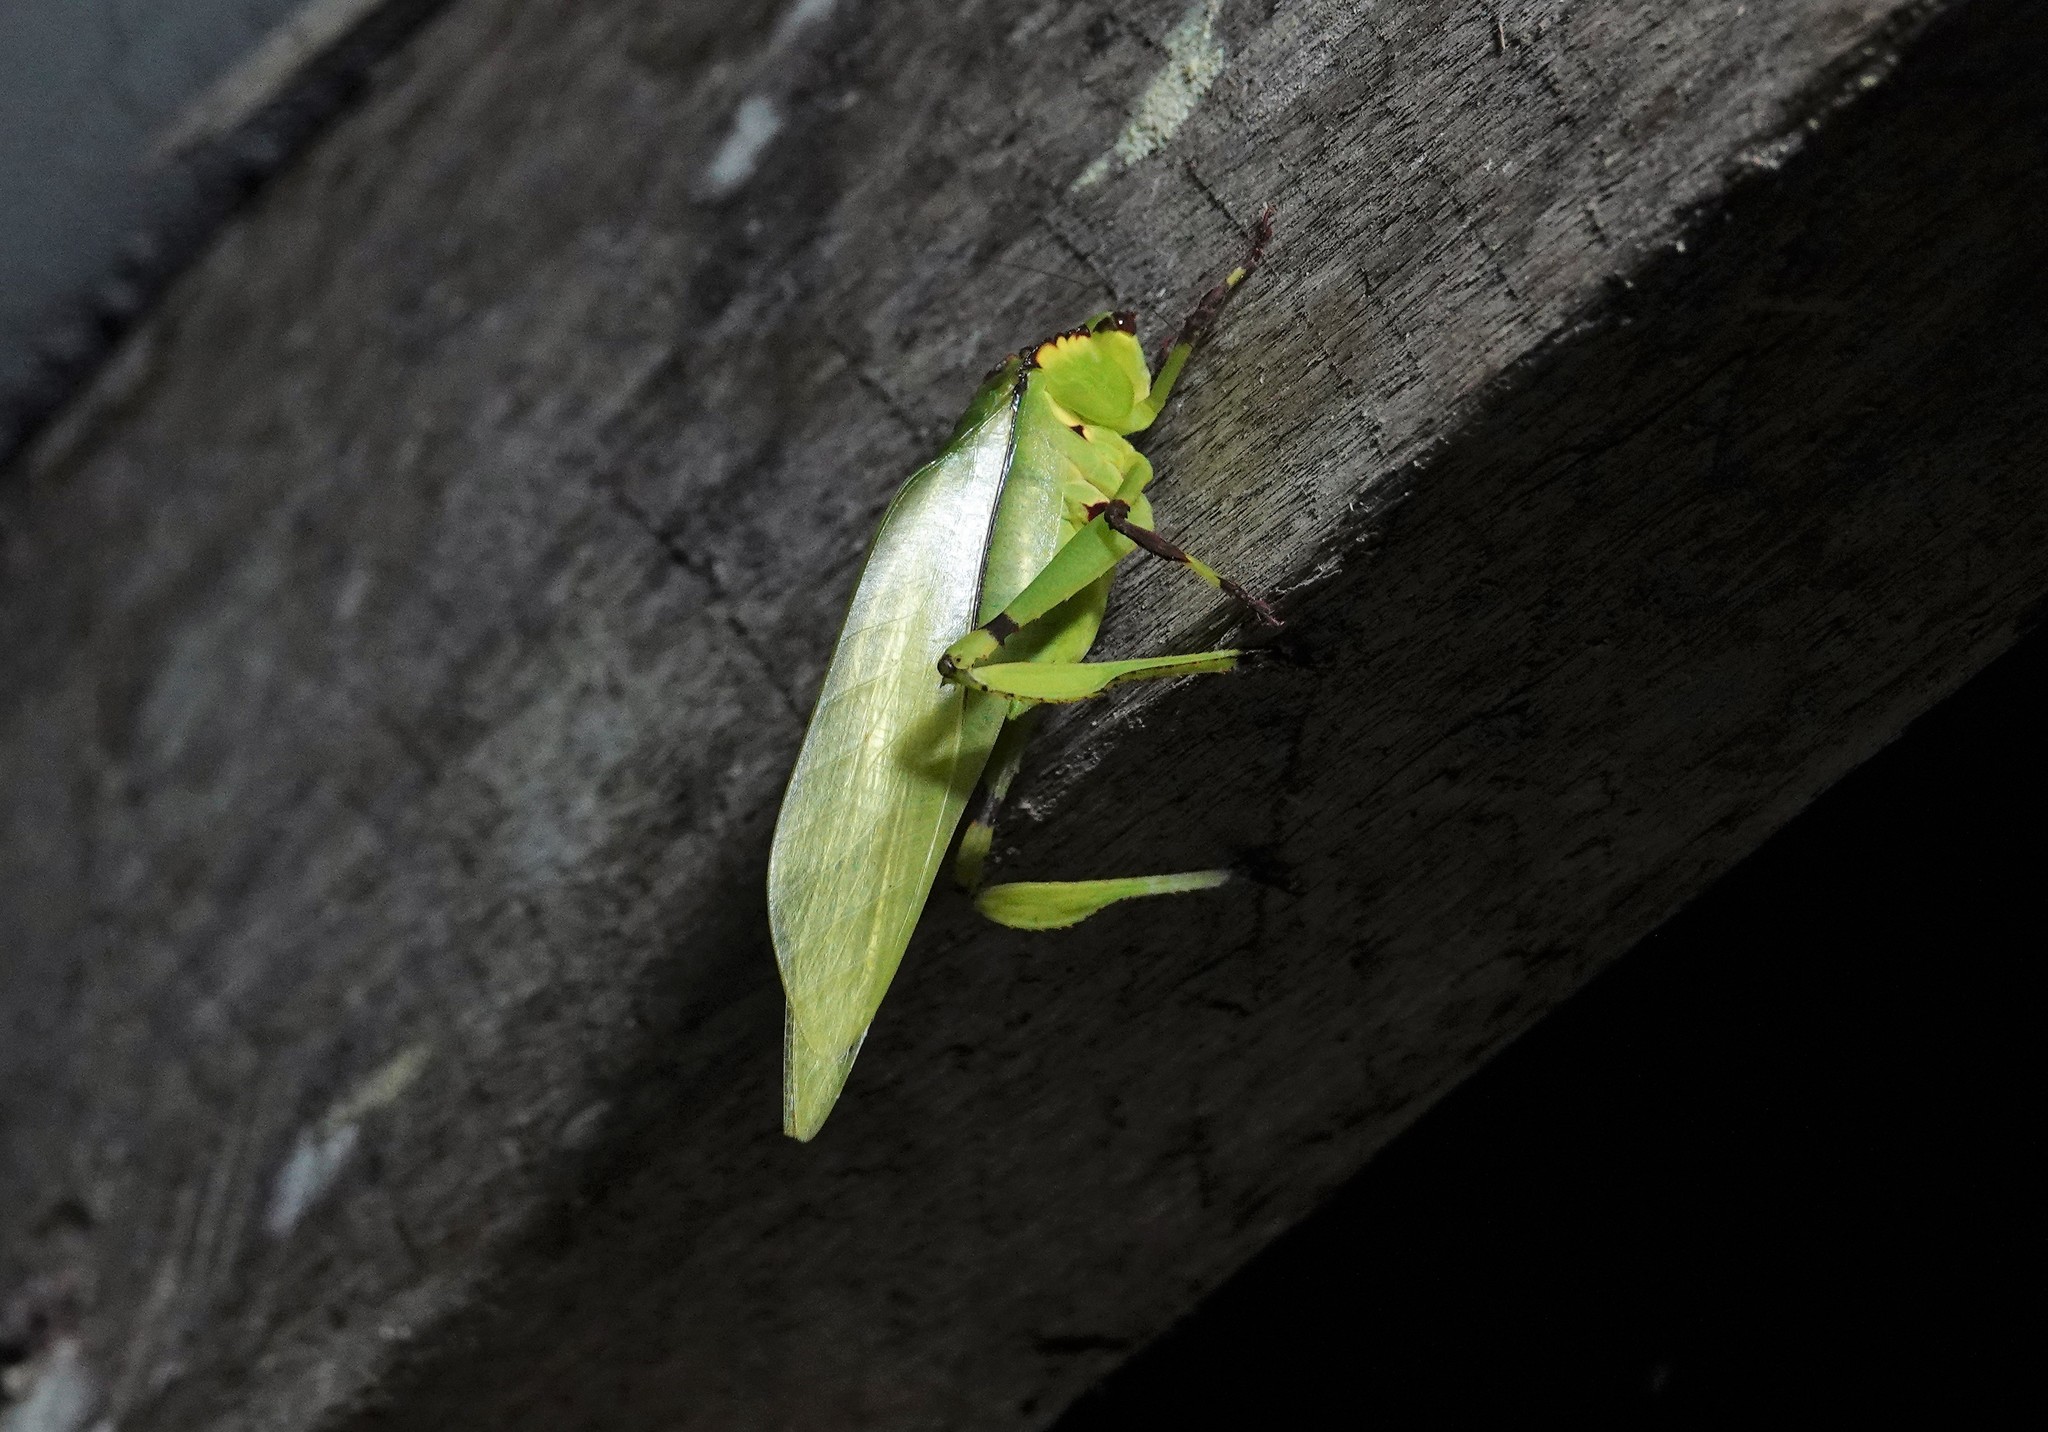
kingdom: Animalia
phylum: Arthropoda
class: Insecta
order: Orthoptera
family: Tettigoniidae
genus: Cnemidophyllum
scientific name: Cnemidophyllum lineatum
